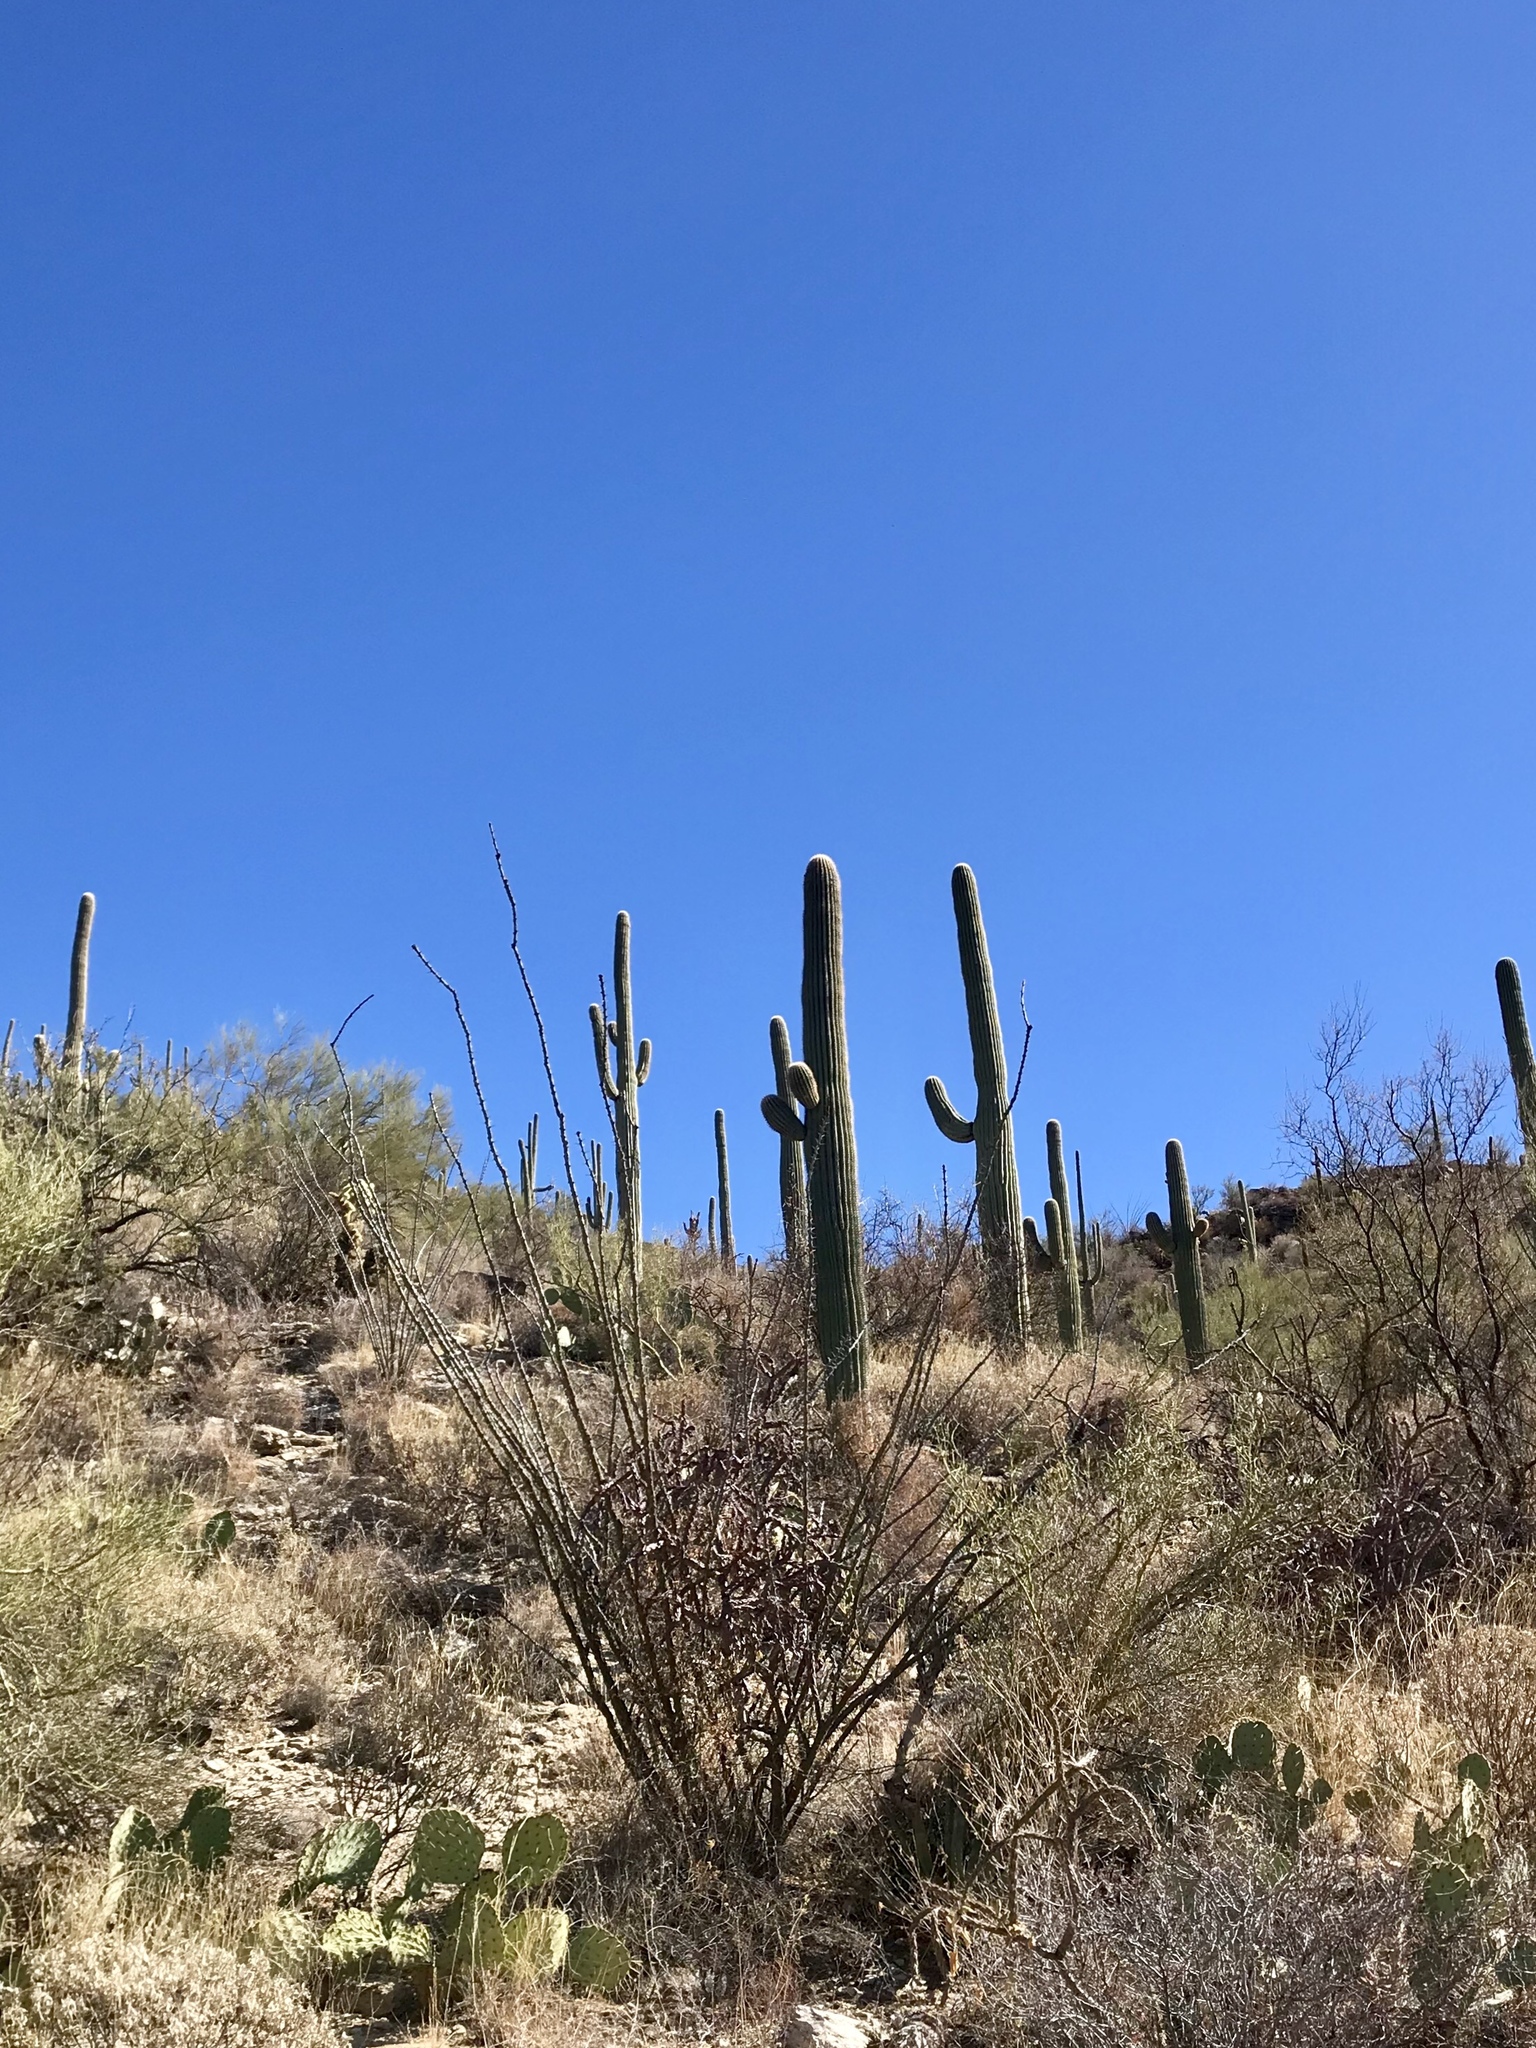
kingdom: Plantae
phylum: Tracheophyta
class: Magnoliopsida
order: Caryophyllales
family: Cactaceae
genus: Carnegiea
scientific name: Carnegiea gigantea
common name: Saguaro
